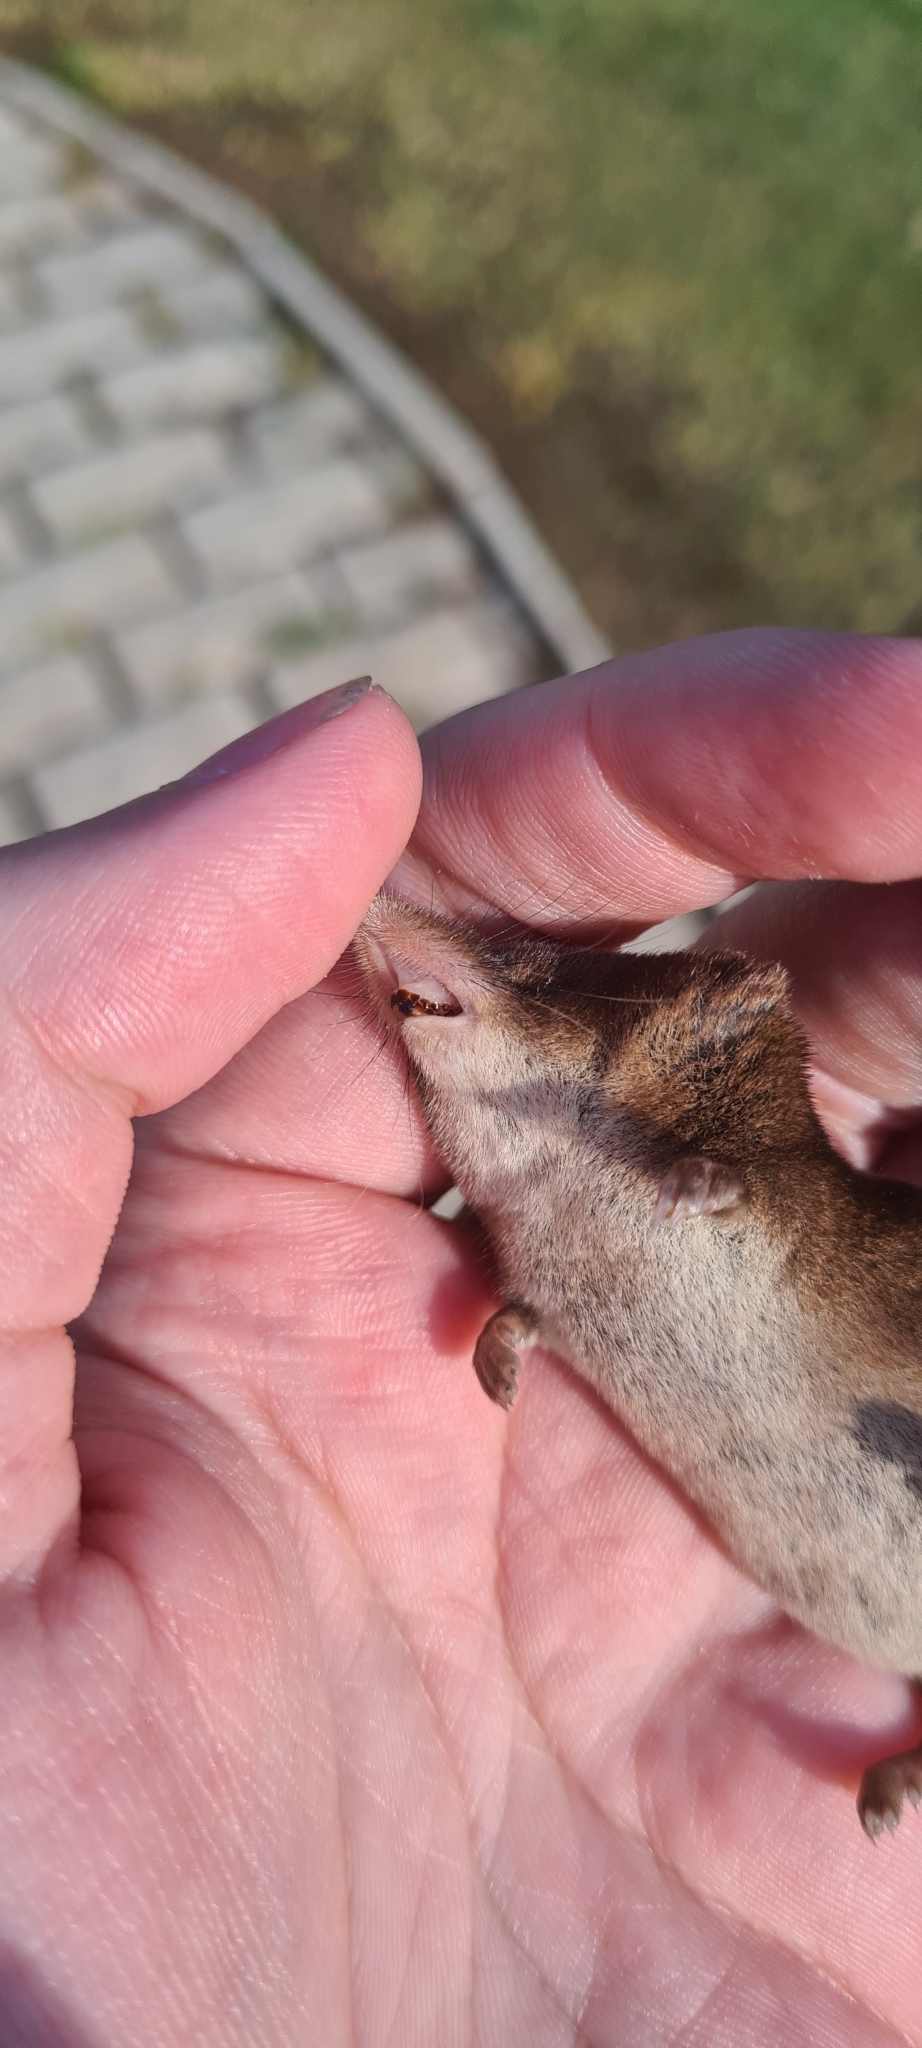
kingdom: Animalia
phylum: Chordata
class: Mammalia
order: Soricomorpha
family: Soricidae
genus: Sorex
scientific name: Sorex araneus
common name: Common shrew
